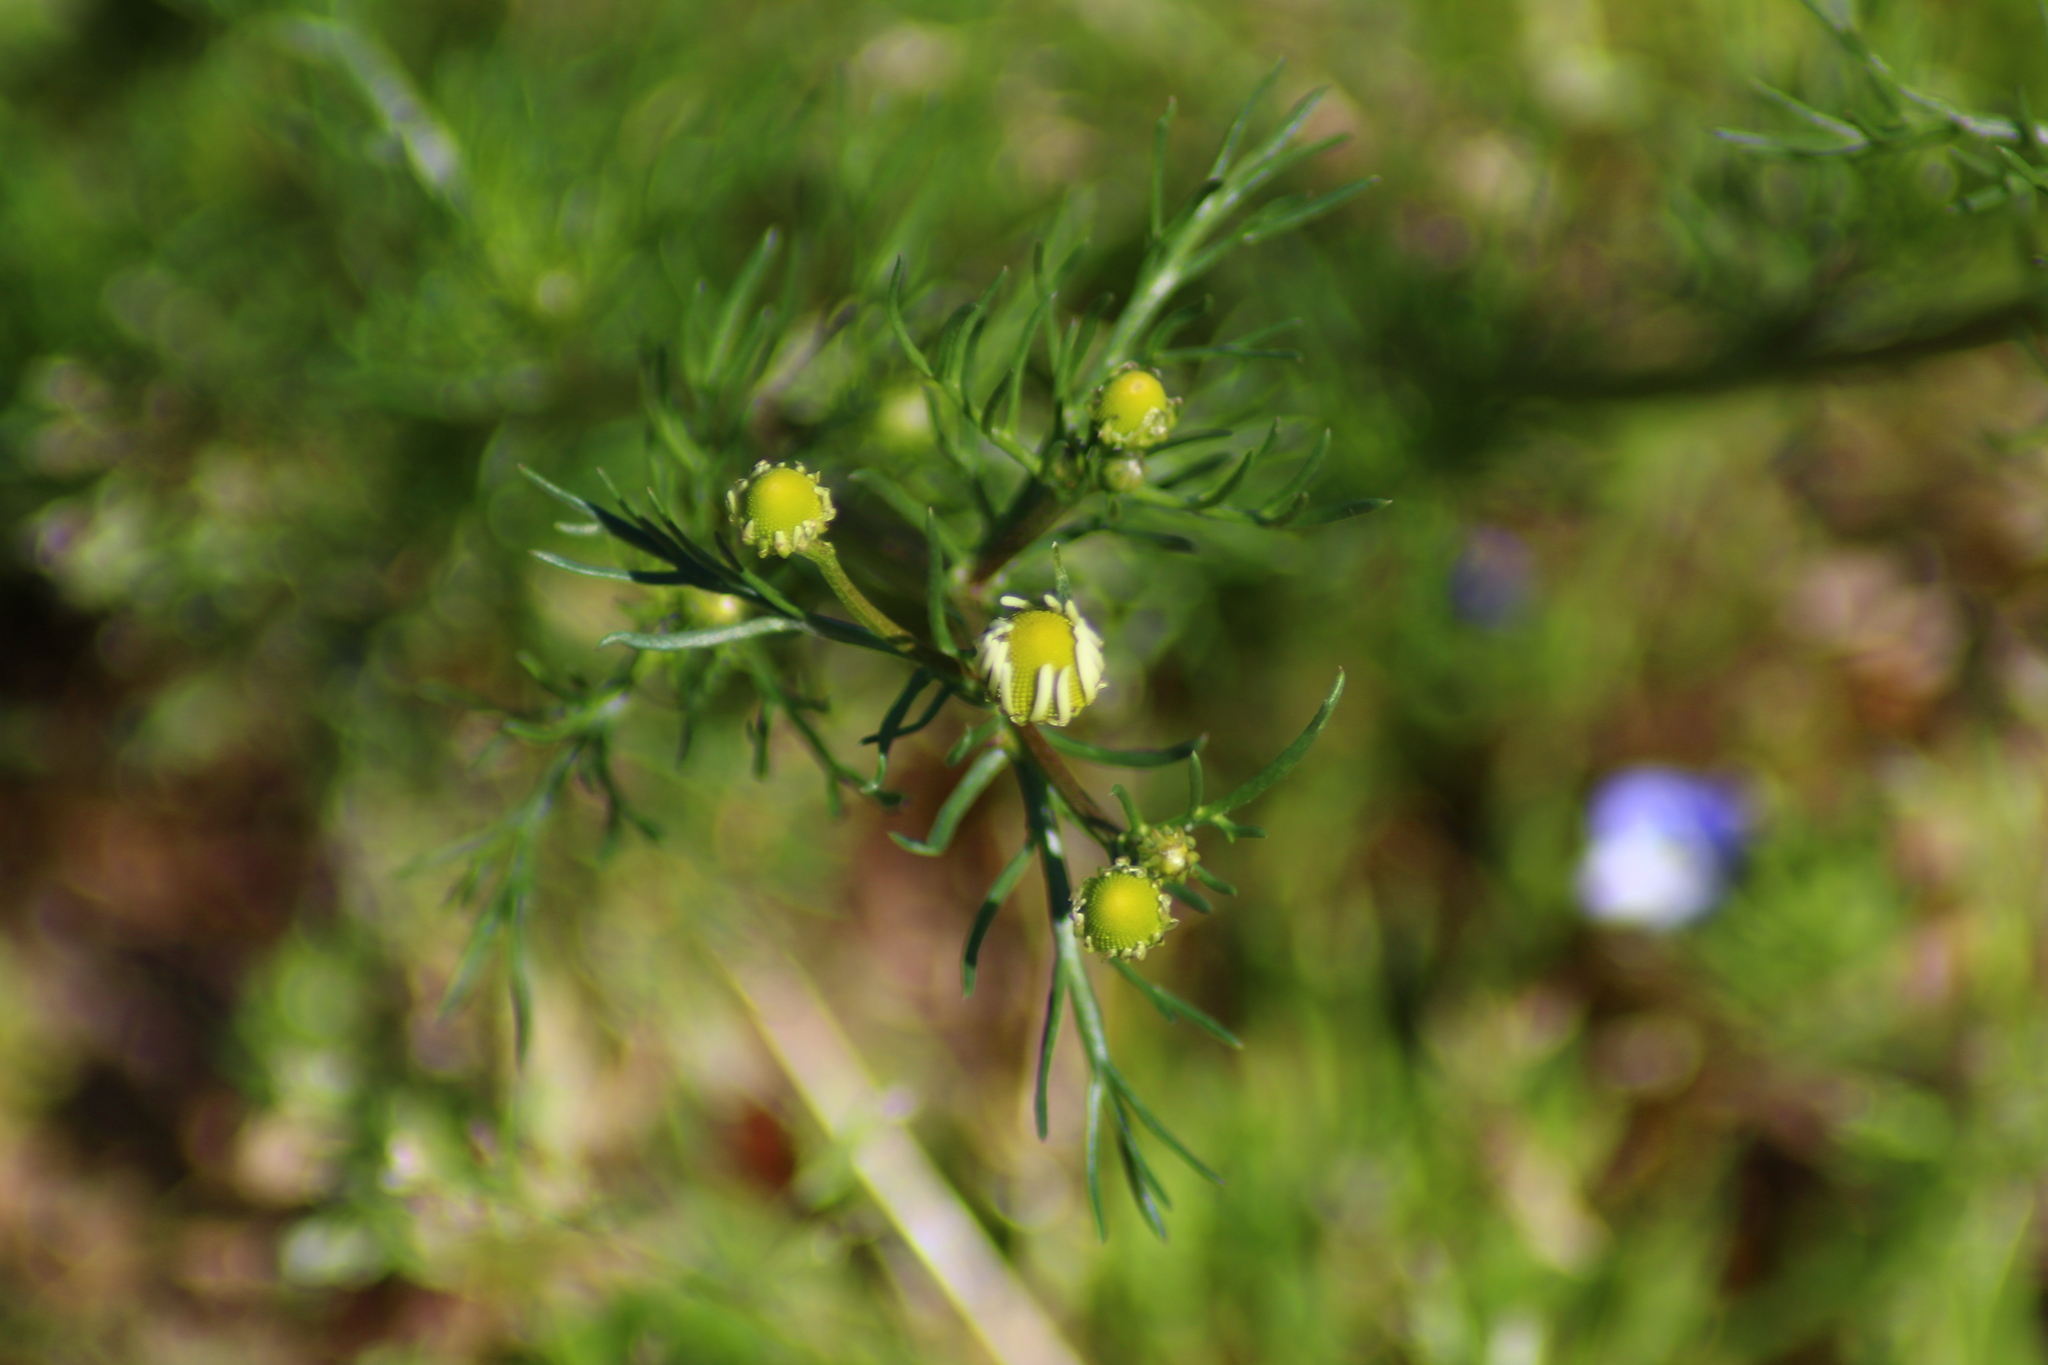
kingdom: Plantae
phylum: Tracheophyta
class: Magnoliopsida
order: Asterales
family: Asteraceae
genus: Tripleurospermum
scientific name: Tripleurospermum inodorum
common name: Scentless mayweed
